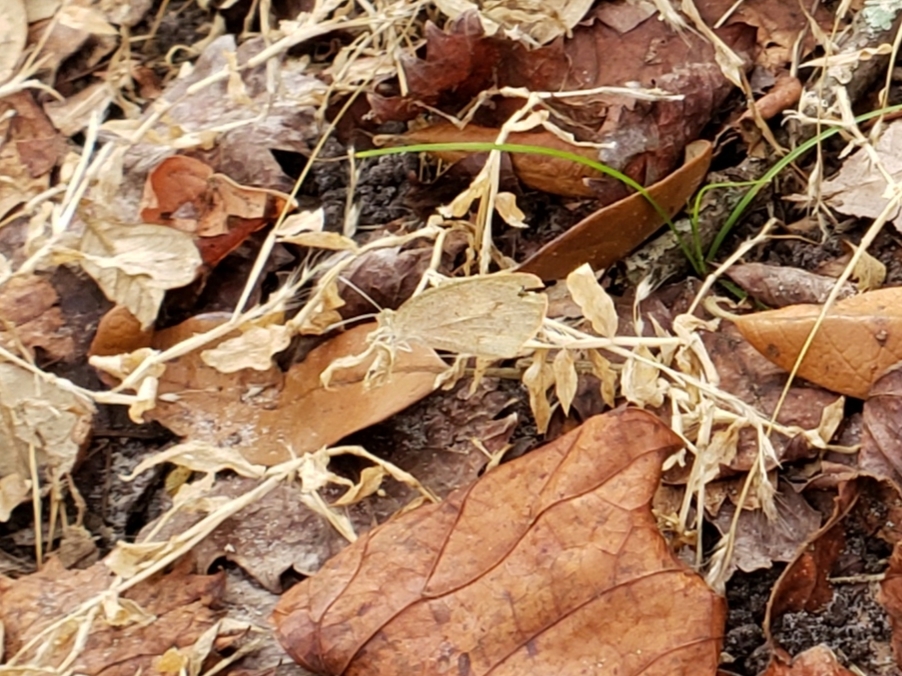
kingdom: Animalia
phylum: Arthropoda
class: Insecta
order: Lepidoptera
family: Pieridae
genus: Eurema
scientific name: Eurema daira
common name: Barred sulphur
